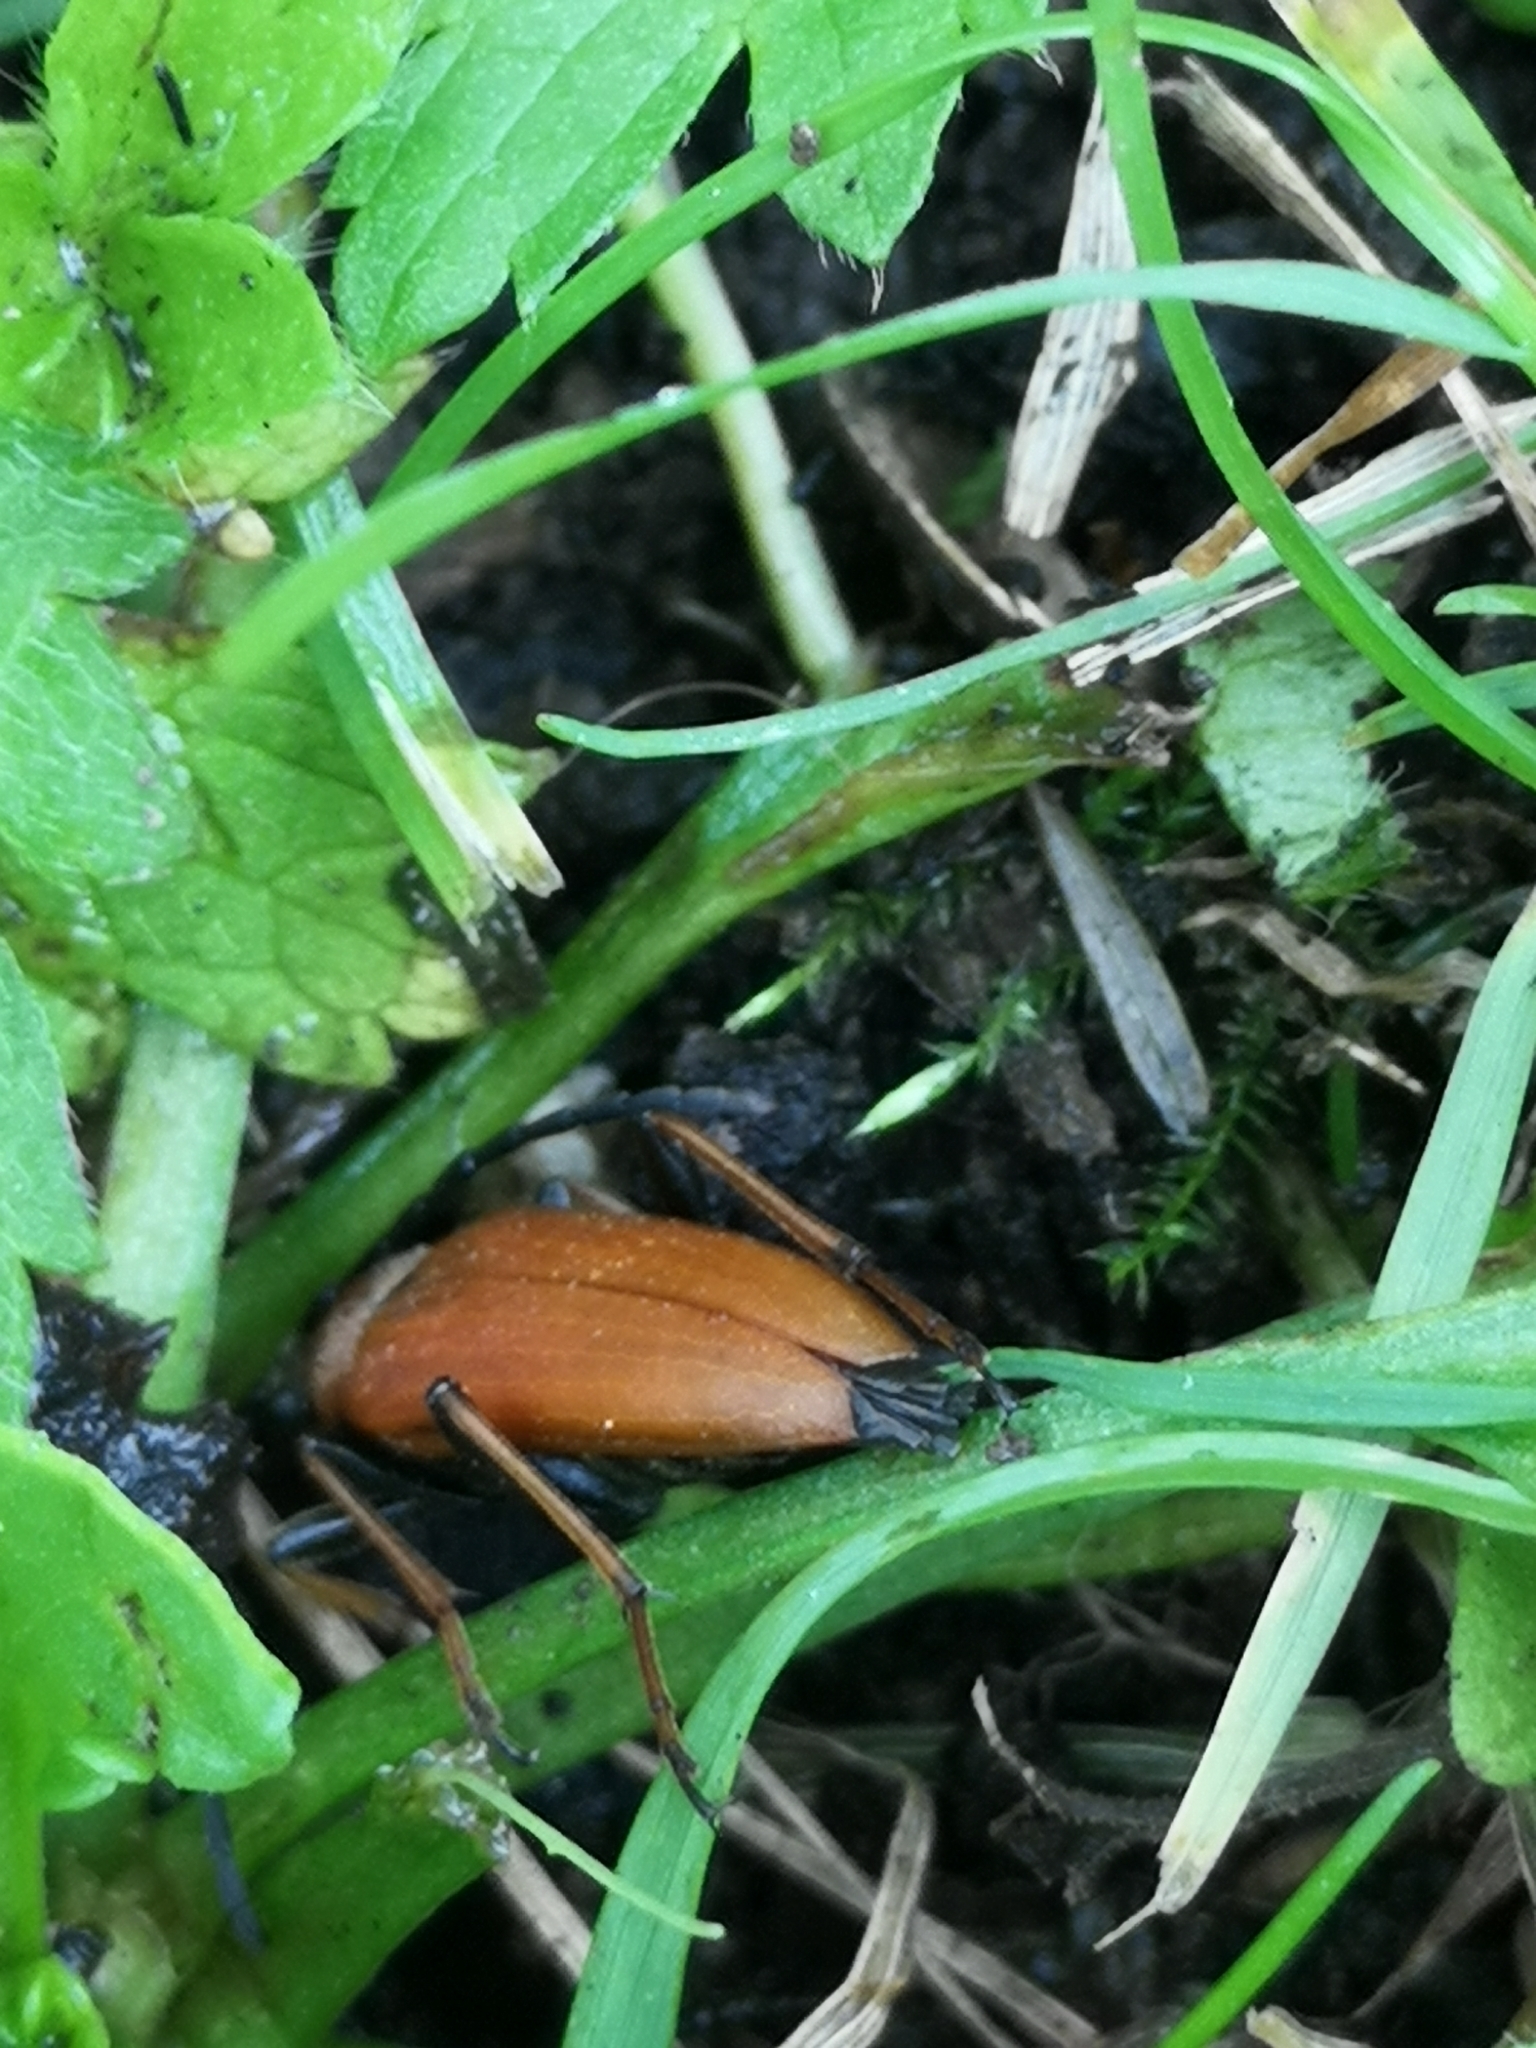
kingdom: Animalia
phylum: Arthropoda
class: Insecta
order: Coleoptera
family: Cerambycidae
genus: Stictoleptura
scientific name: Stictoleptura rubra
